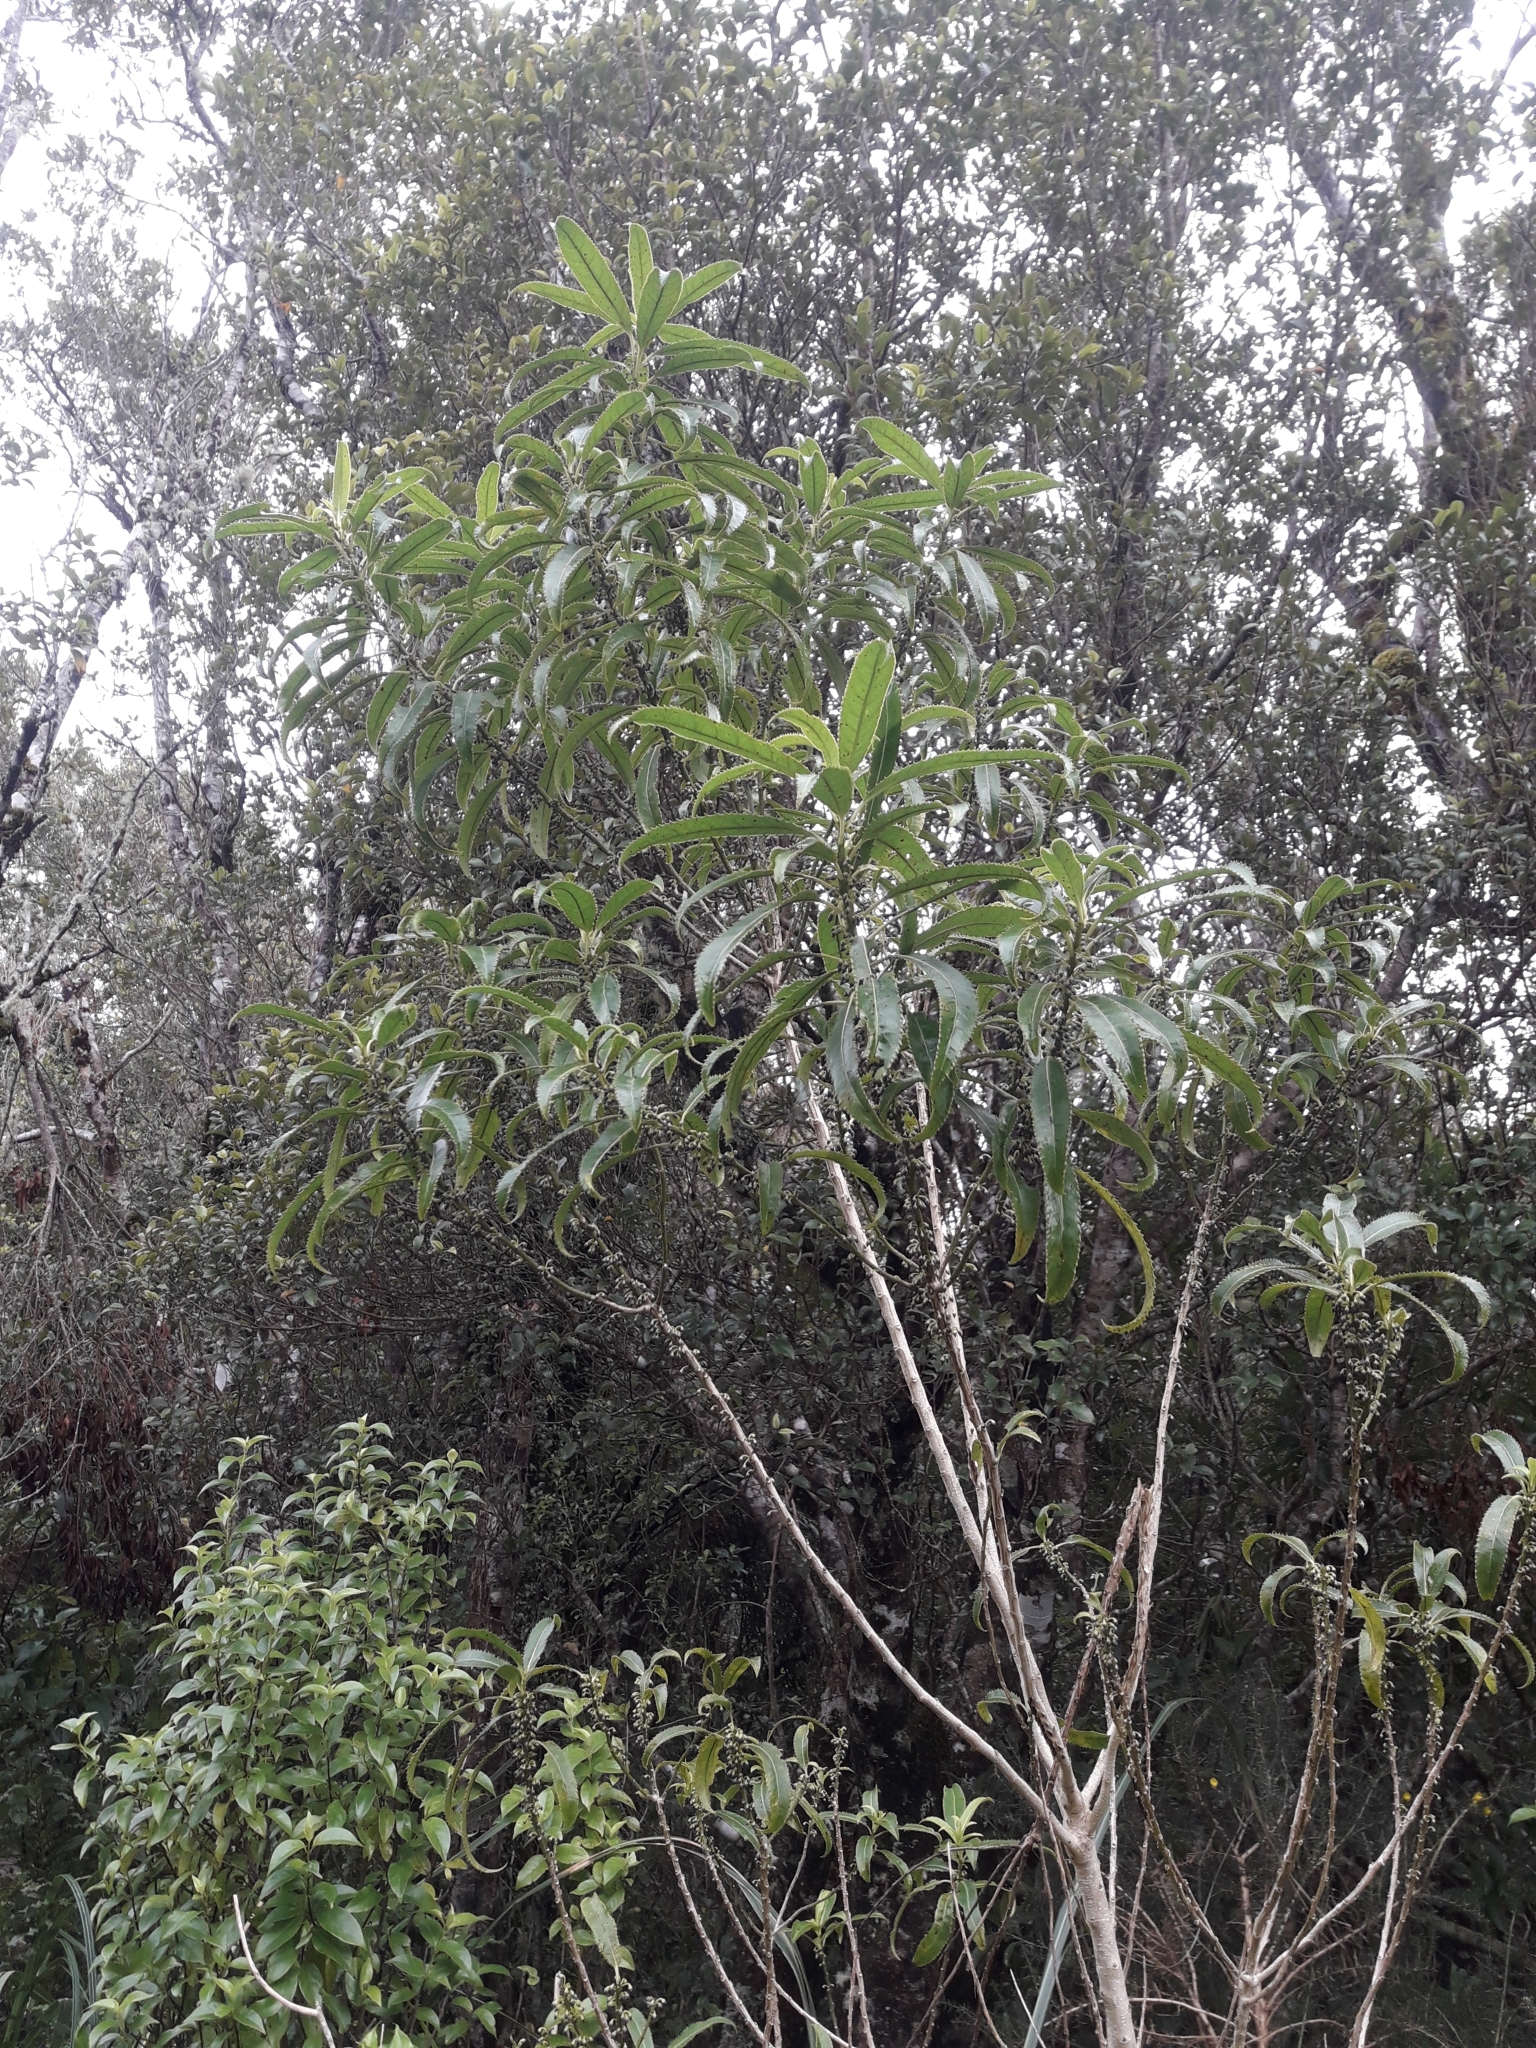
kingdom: Plantae
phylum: Tracheophyta
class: Magnoliopsida
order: Malpighiales
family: Violaceae
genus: Melicytus
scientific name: Melicytus lanceolatus
